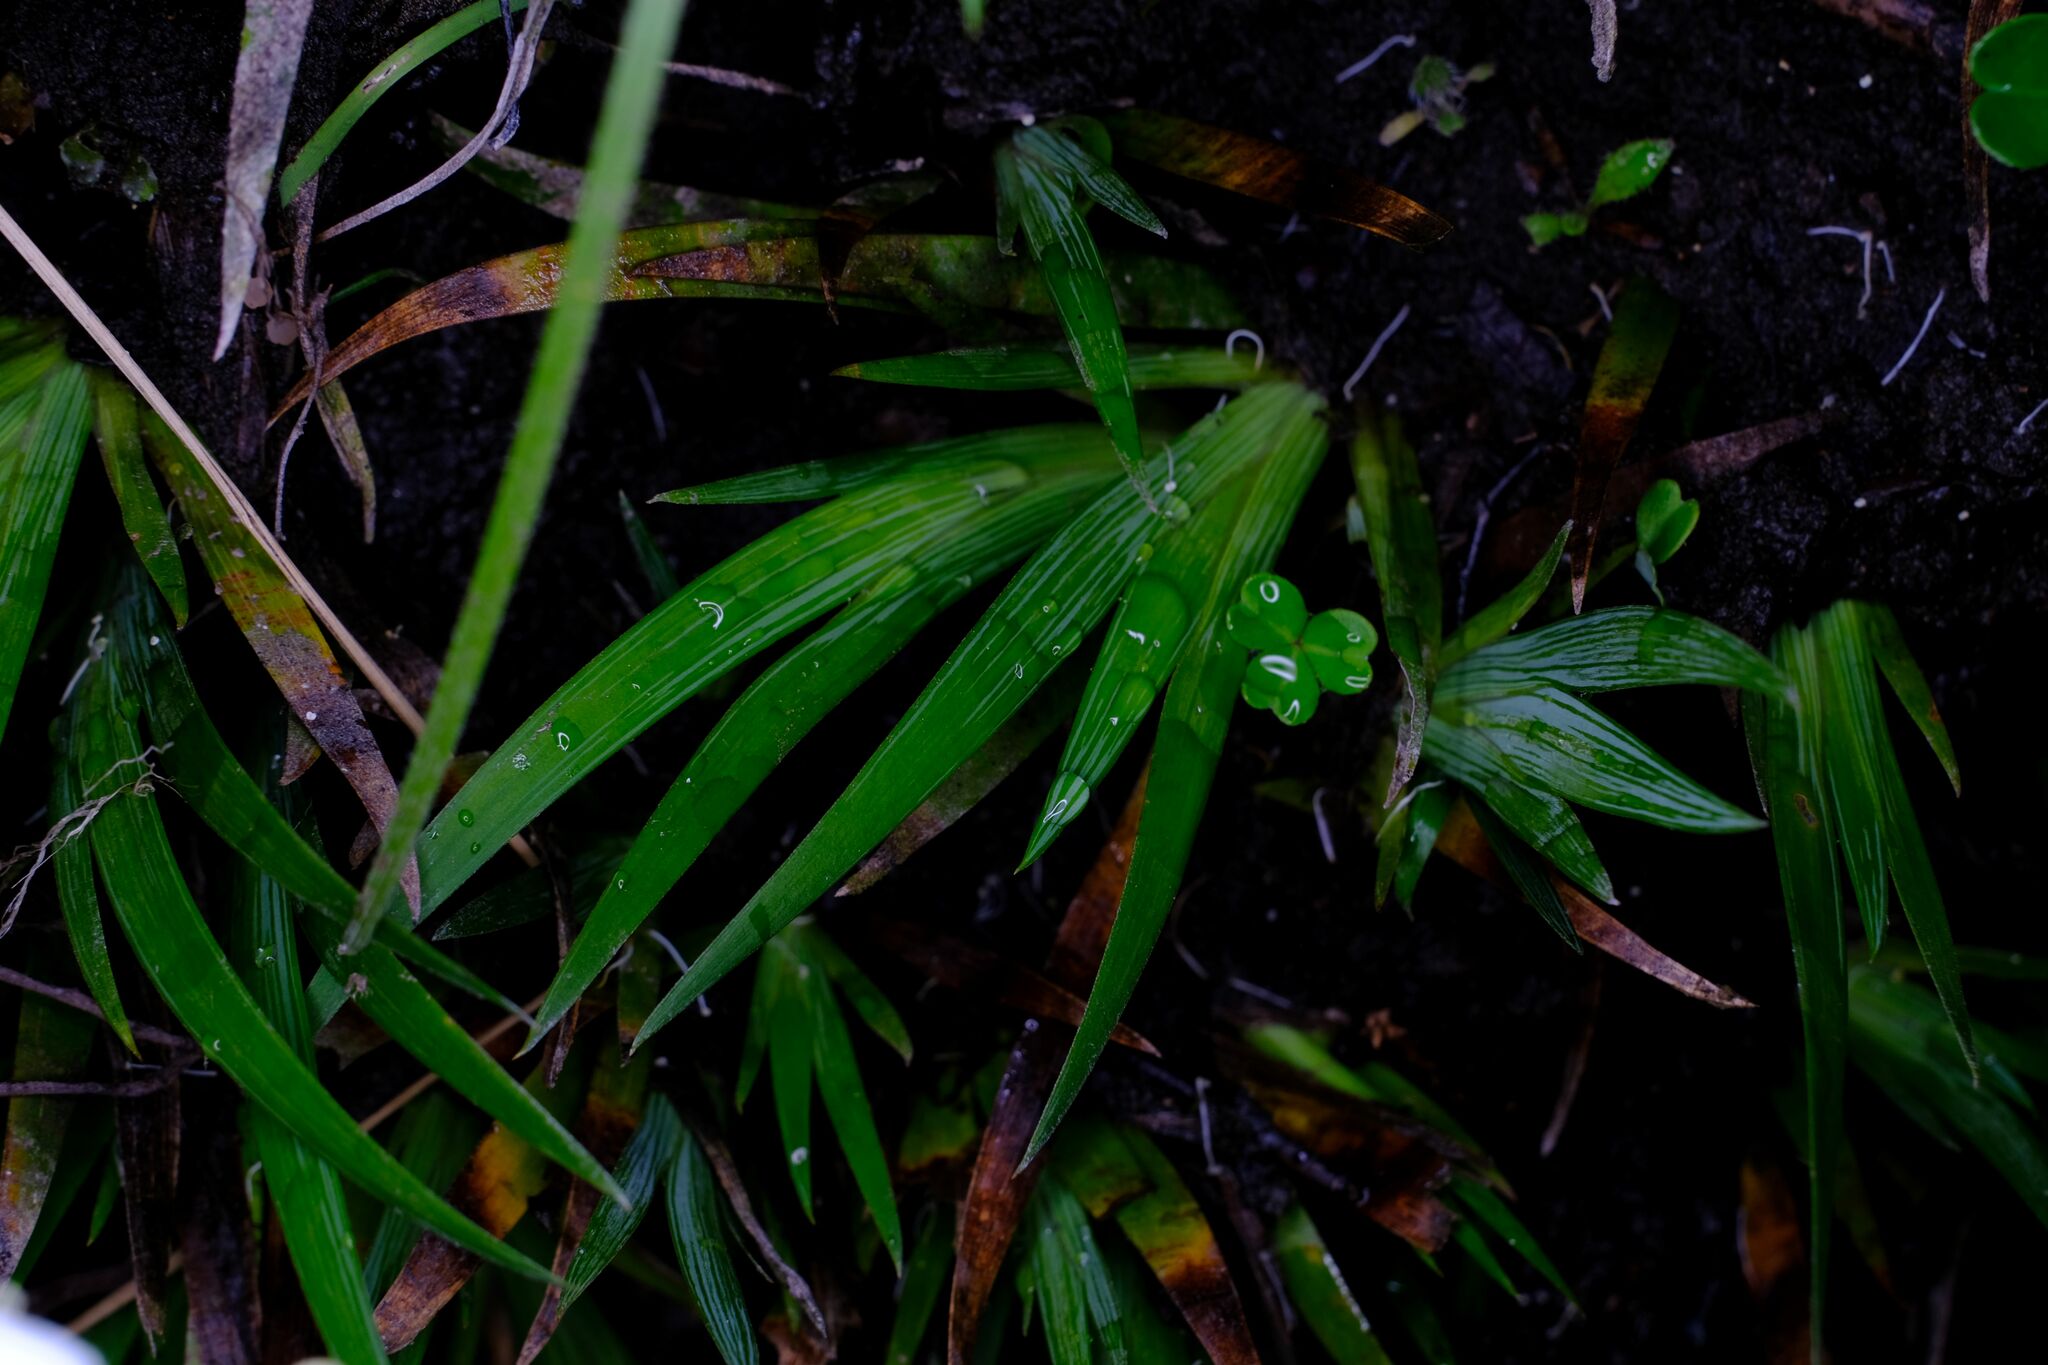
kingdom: Plantae
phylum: Tracheophyta
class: Liliopsida
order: Asparagales
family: Iridaceae
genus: Libertia
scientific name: Libertia pulchella
